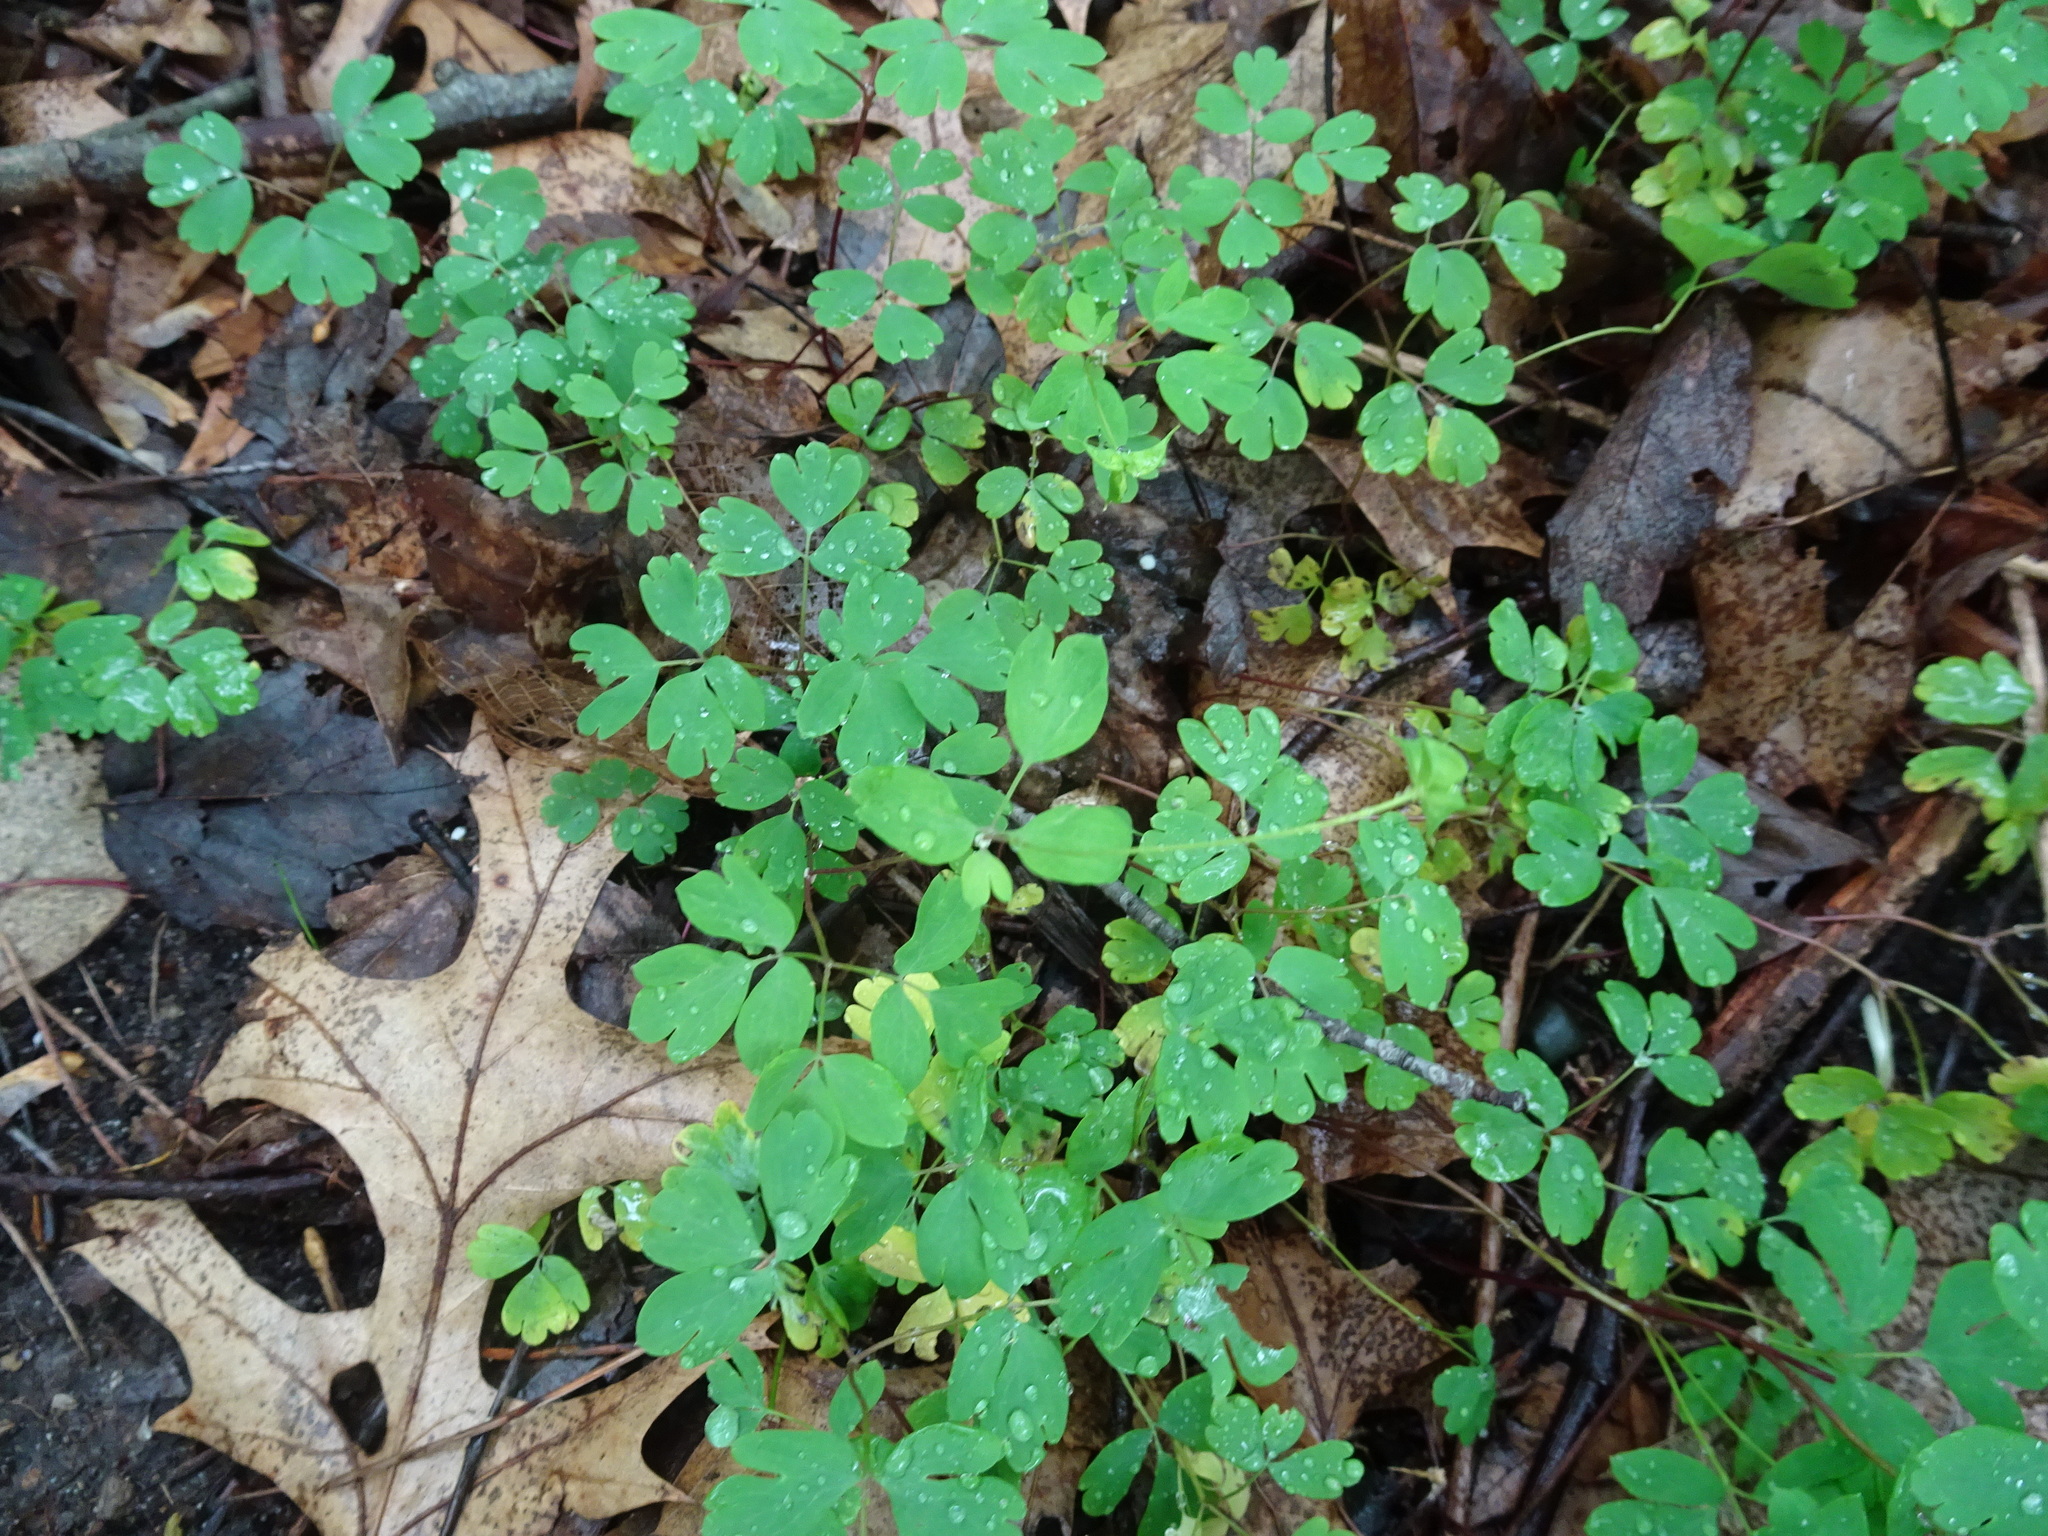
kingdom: Plantae
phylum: Tracheophyta
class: Magnoliopsida
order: Ranunculales
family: Ranunculaceae
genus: Enemion
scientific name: Enemion biternatum
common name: Eastern false rue-anemone
